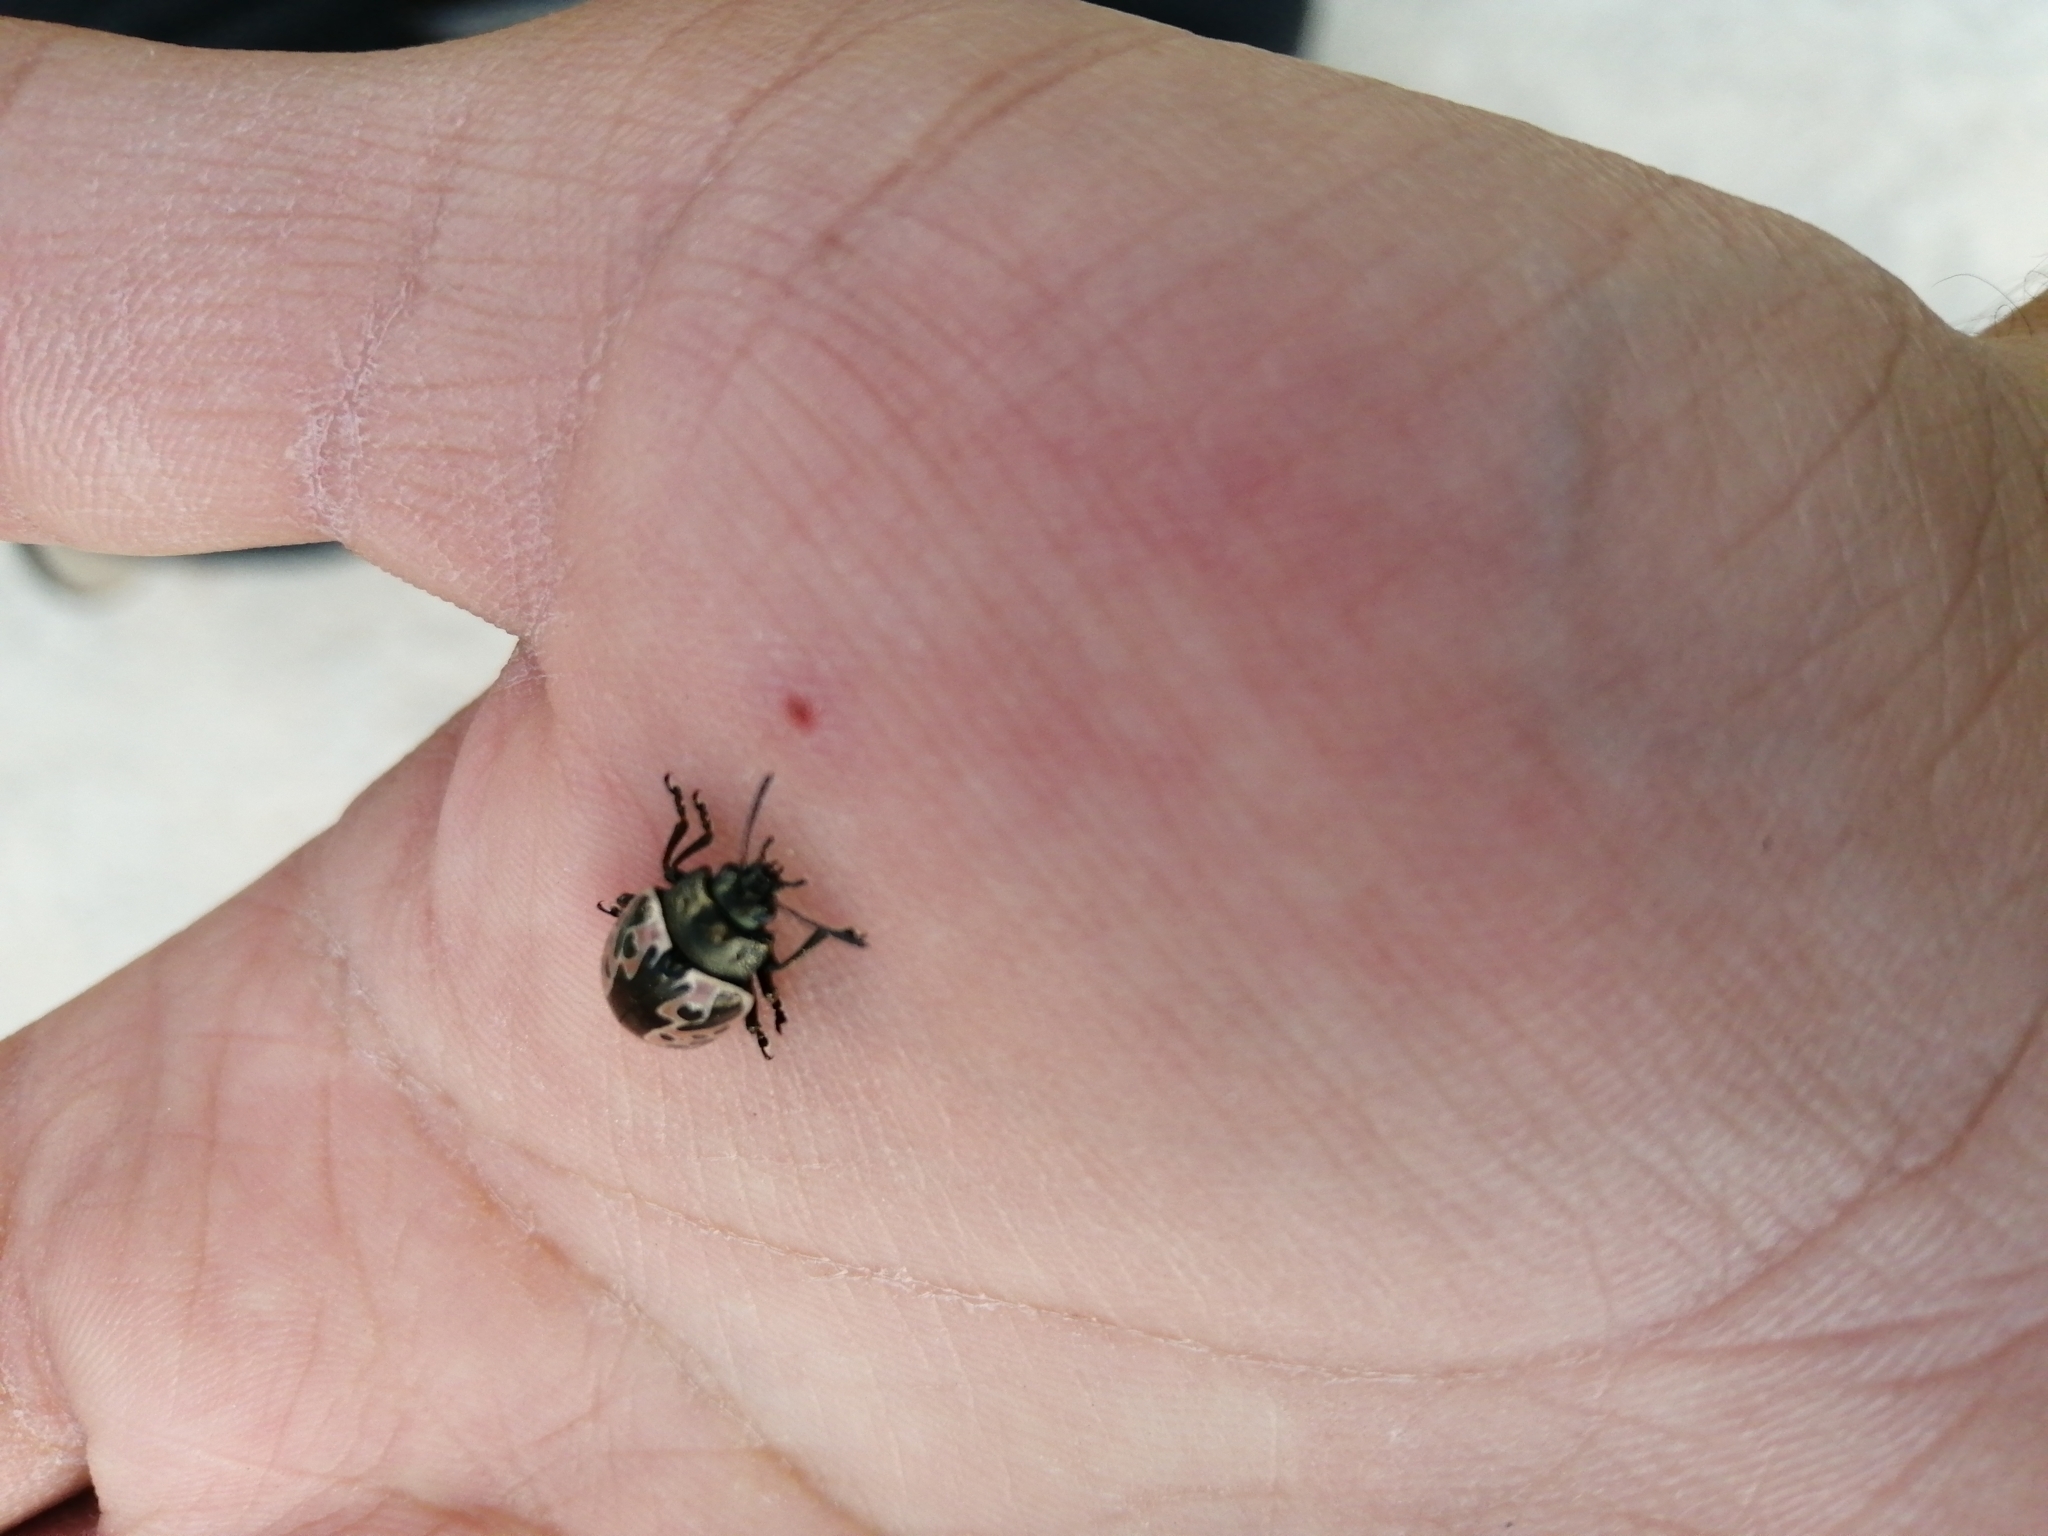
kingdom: Animalia
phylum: Arthropoda
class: Insecta
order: Coleoptera
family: Chrysomelidae
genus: Calligrapha
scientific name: Calligrapha diversa
